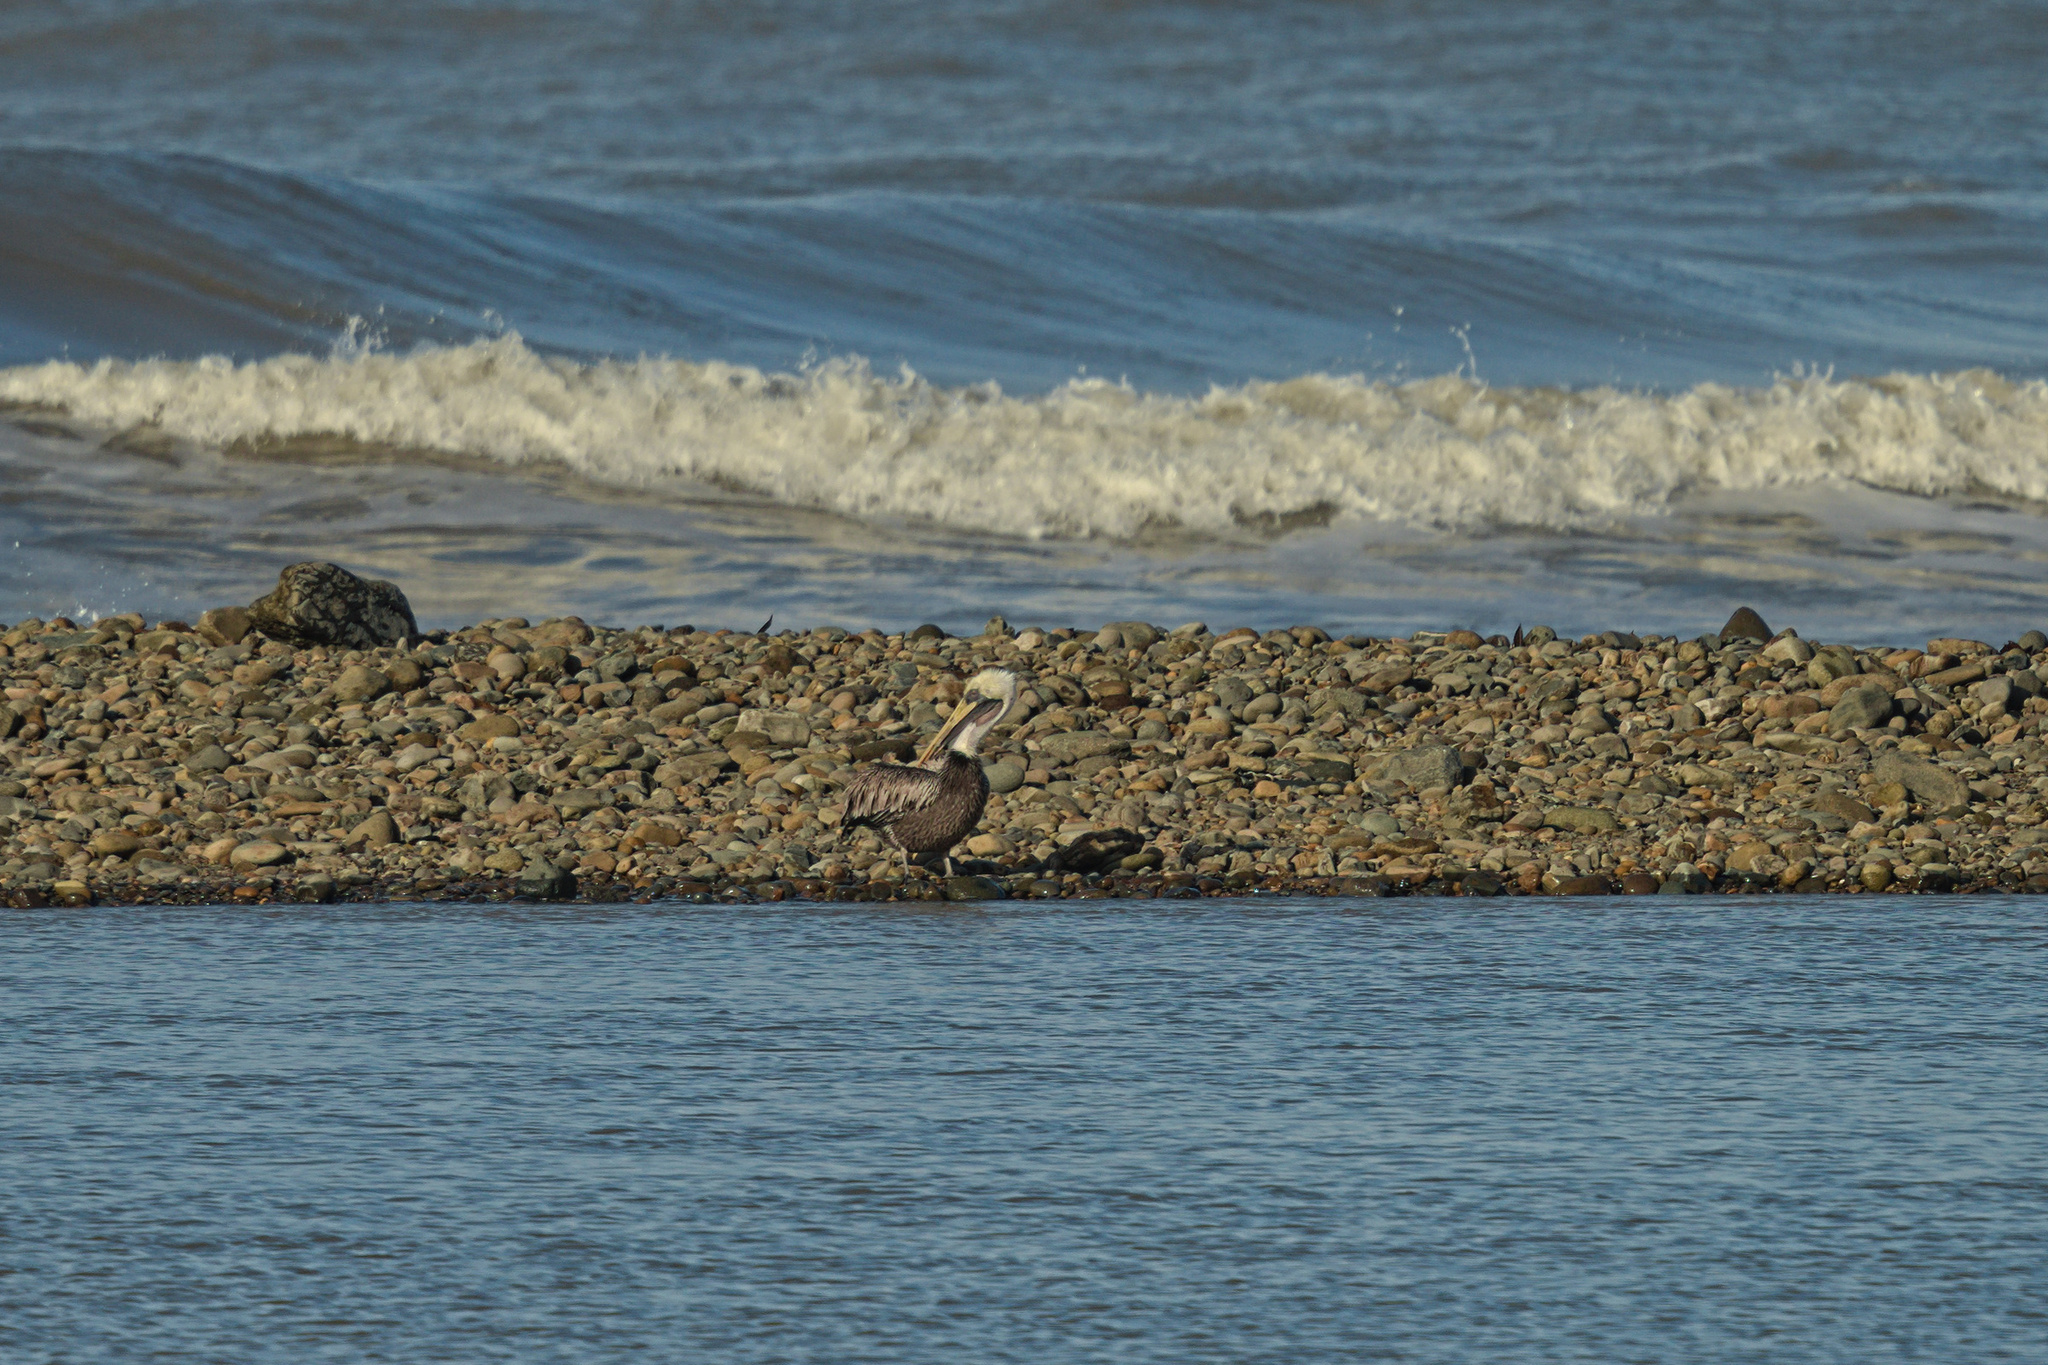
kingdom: Animalia
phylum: Chordata
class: Aves
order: Pelecaniformes
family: Pelecanidae
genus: Pelecanus
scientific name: Pelecanus occidentalis
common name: Brown pelican
